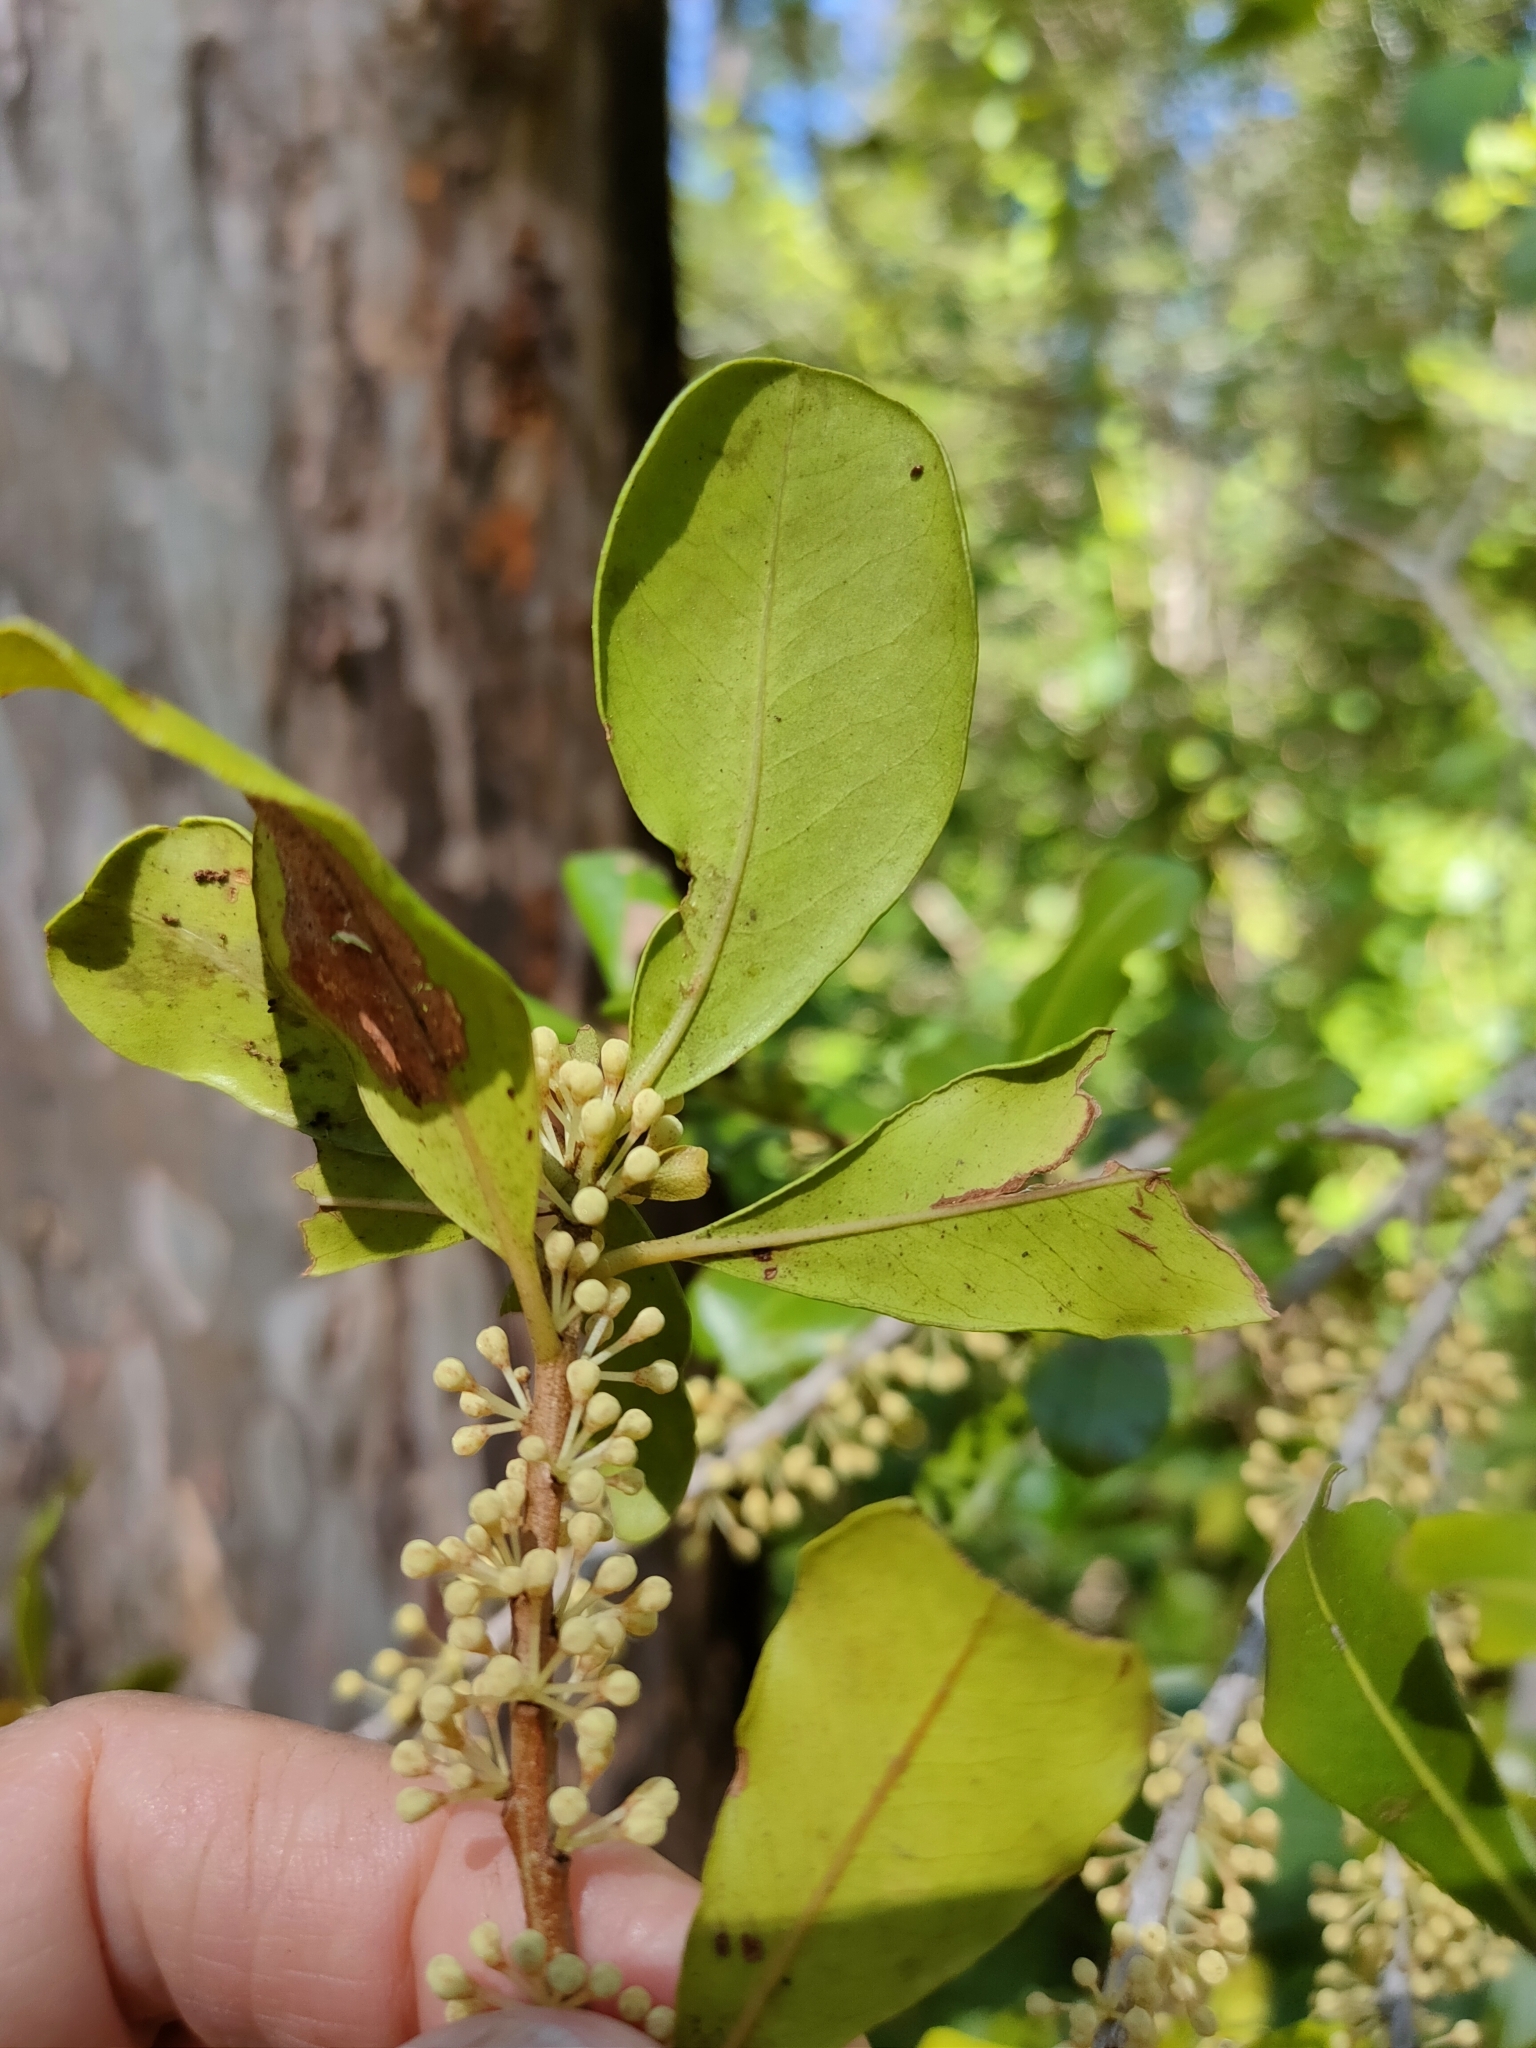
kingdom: Plantae
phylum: Tracheophyta
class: Magnoliopsida
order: Ericales
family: Primulaceae
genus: Myrsine
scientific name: Myrsine variabilis
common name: Brush muttonwood
